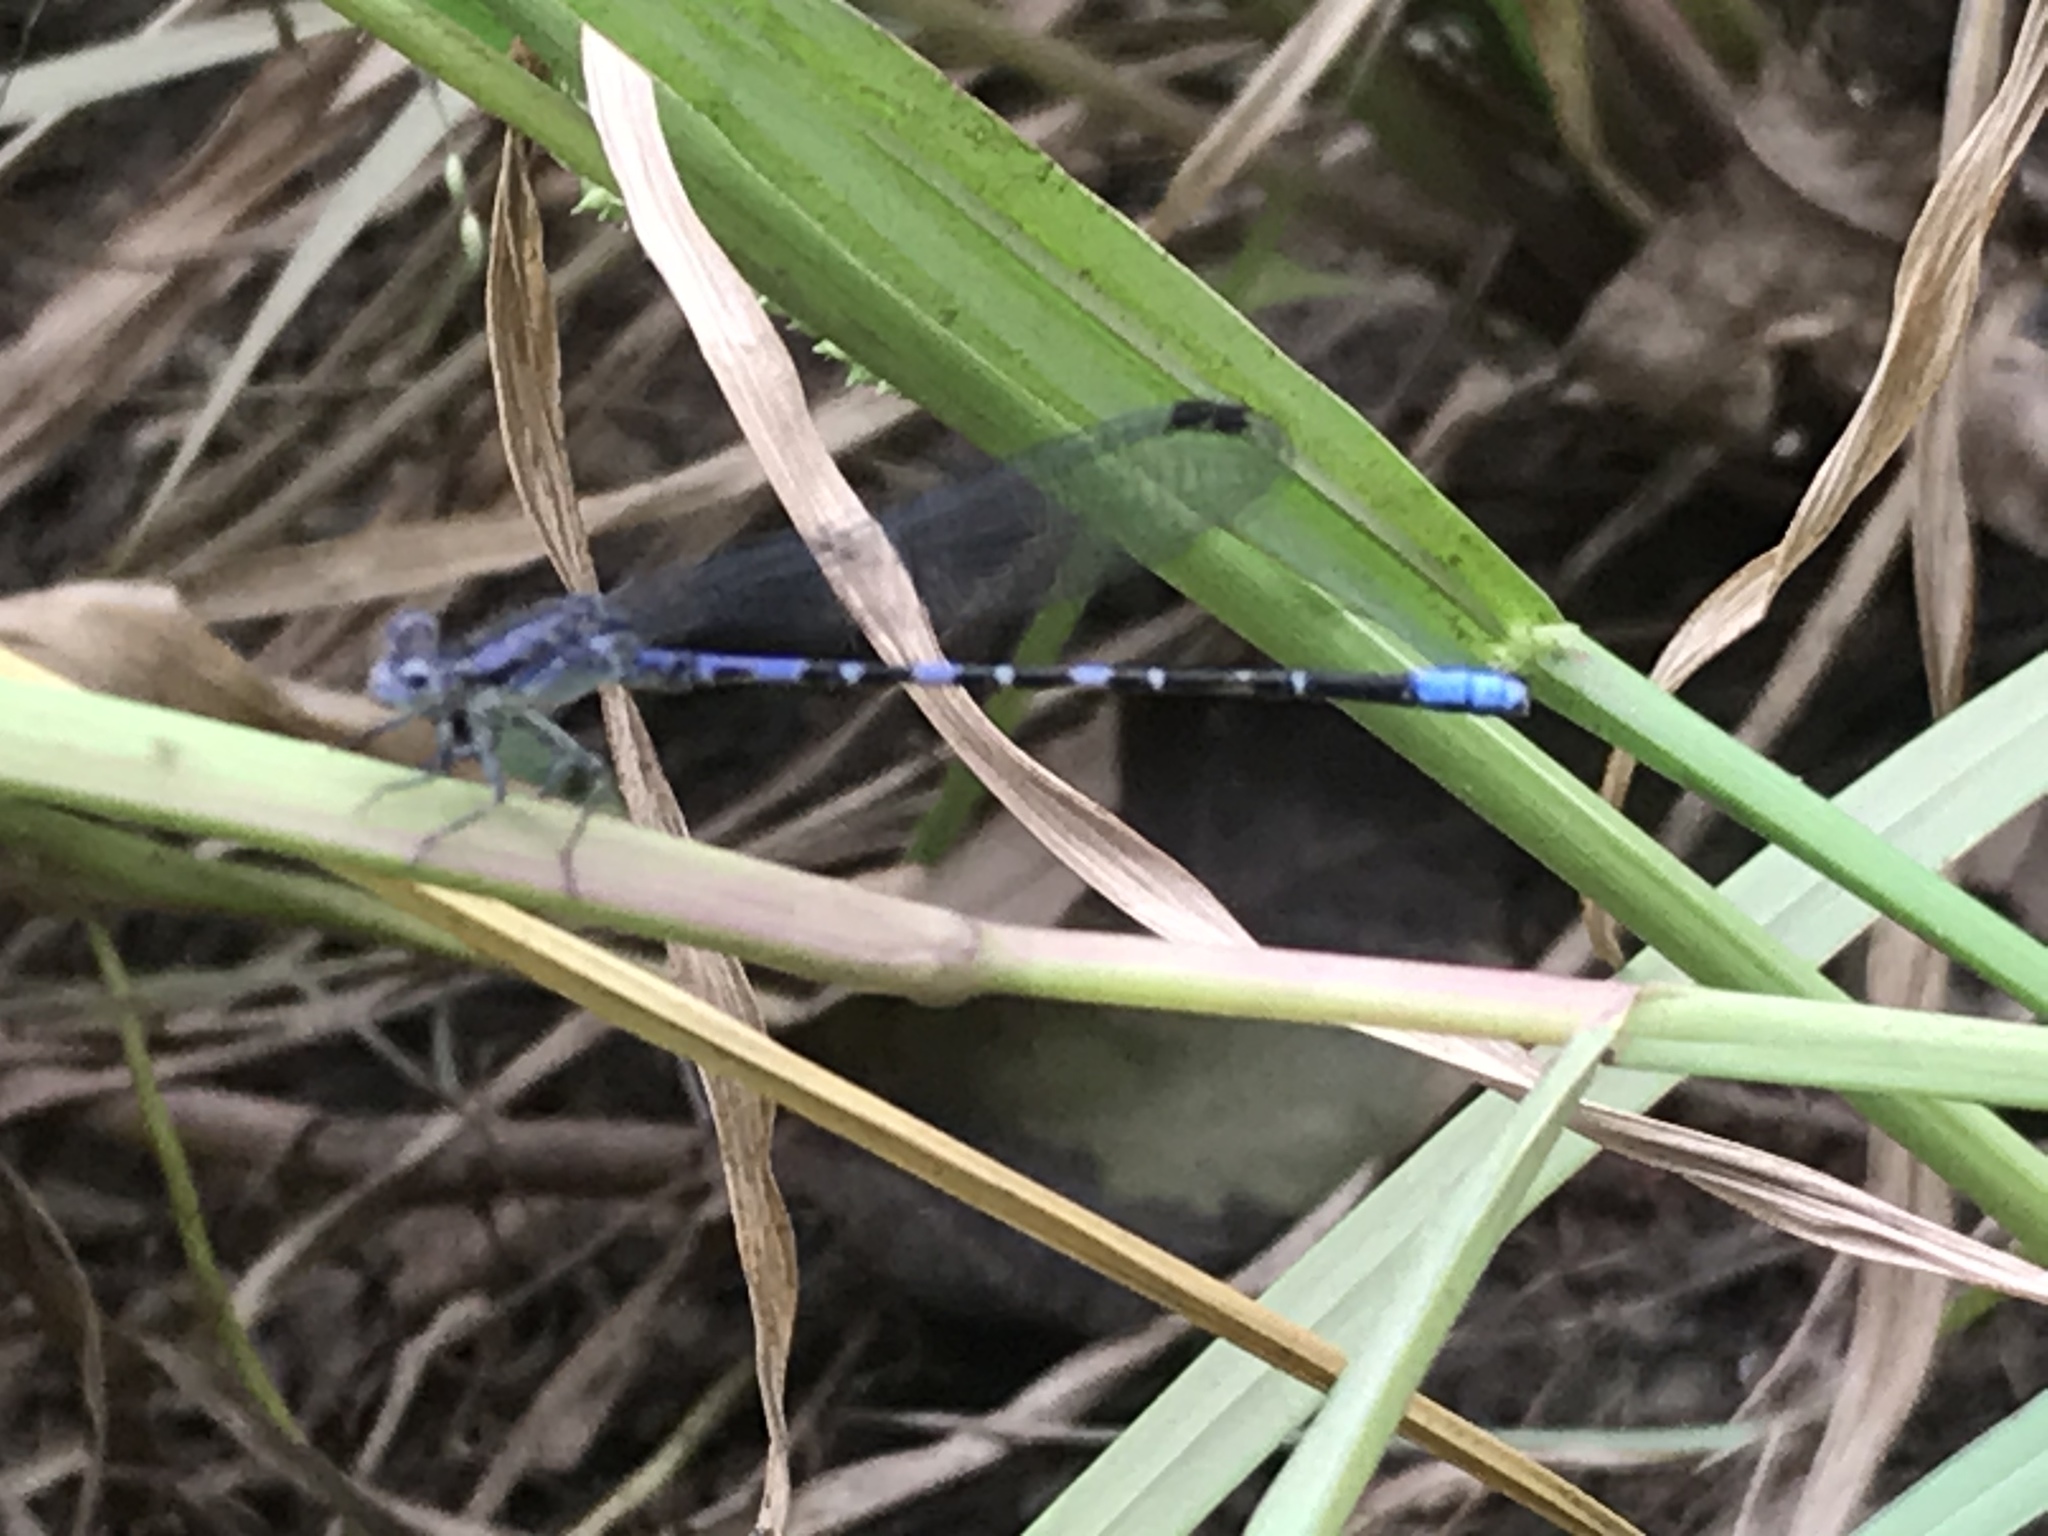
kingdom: Animalia
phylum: Arthropoda
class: Insecta
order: Odonata
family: Coenagrionidae
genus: Argia
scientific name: Argia immunda
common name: Kiowa dancer
